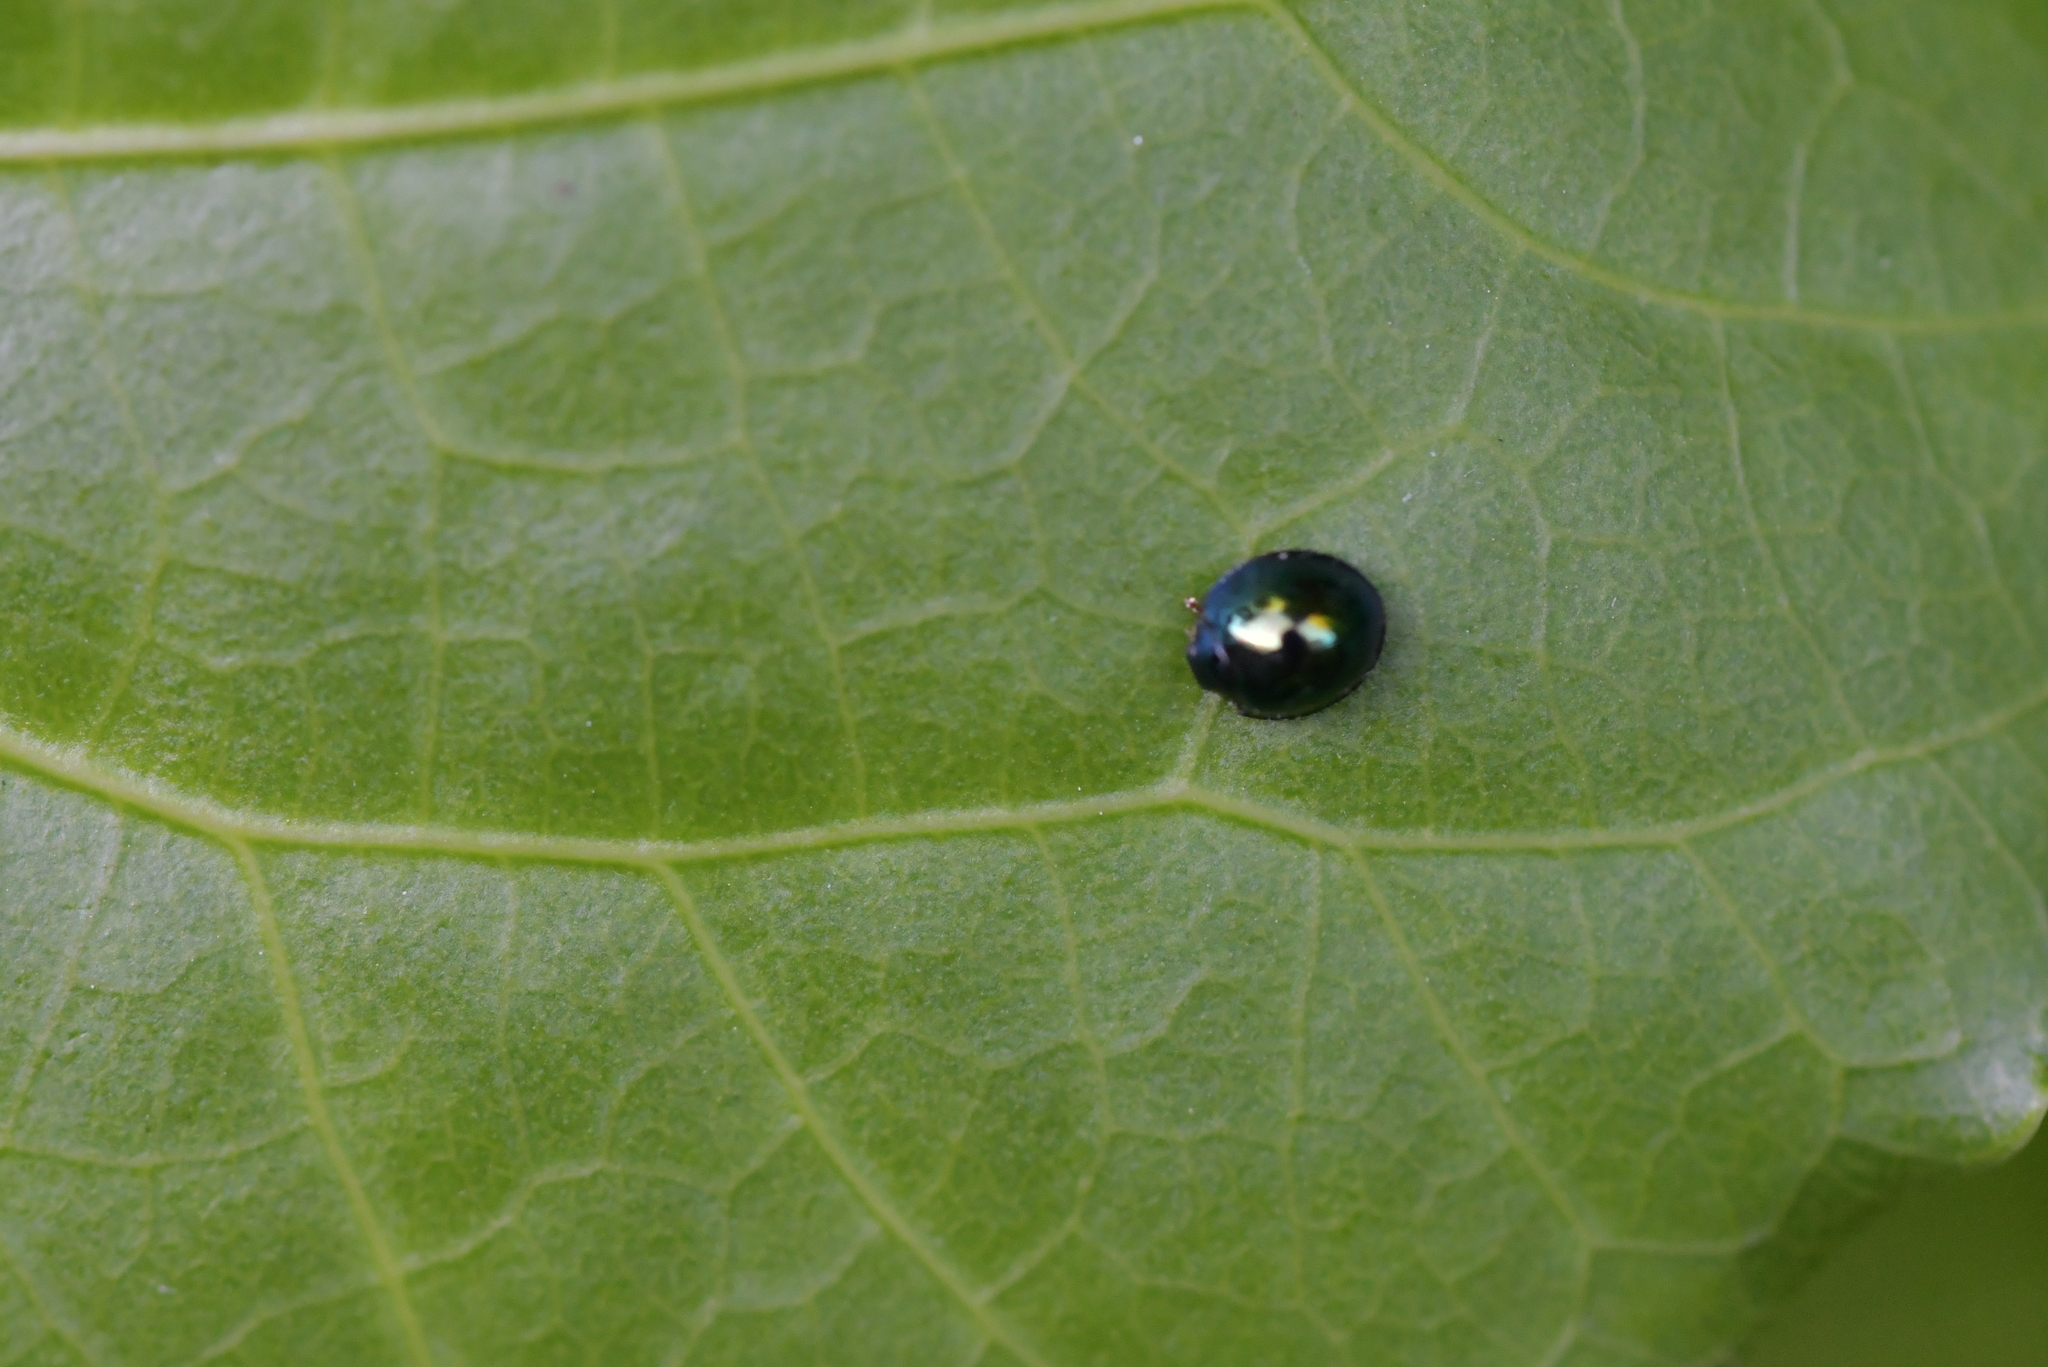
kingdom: Animalia
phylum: Arthropoda
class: Insecta
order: Coleoptera
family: Coccinellidae
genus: Halmus
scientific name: Halmus chalybeus
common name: Steel blue ladybird beetle
